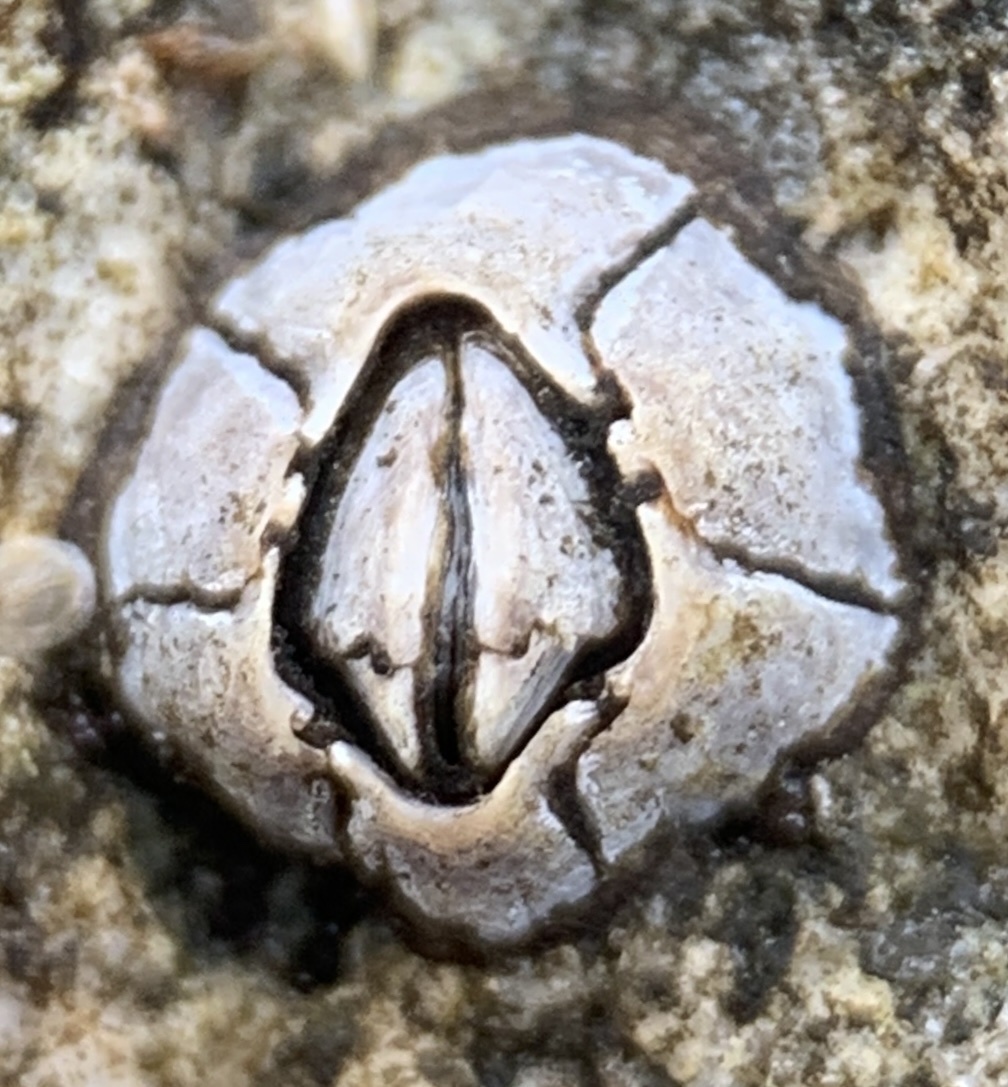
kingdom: Animalia
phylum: Arthropoda
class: Maxillopoda
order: Sessilia
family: Chthamalidae
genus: Chthamalus
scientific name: Chthamalus fragilis
